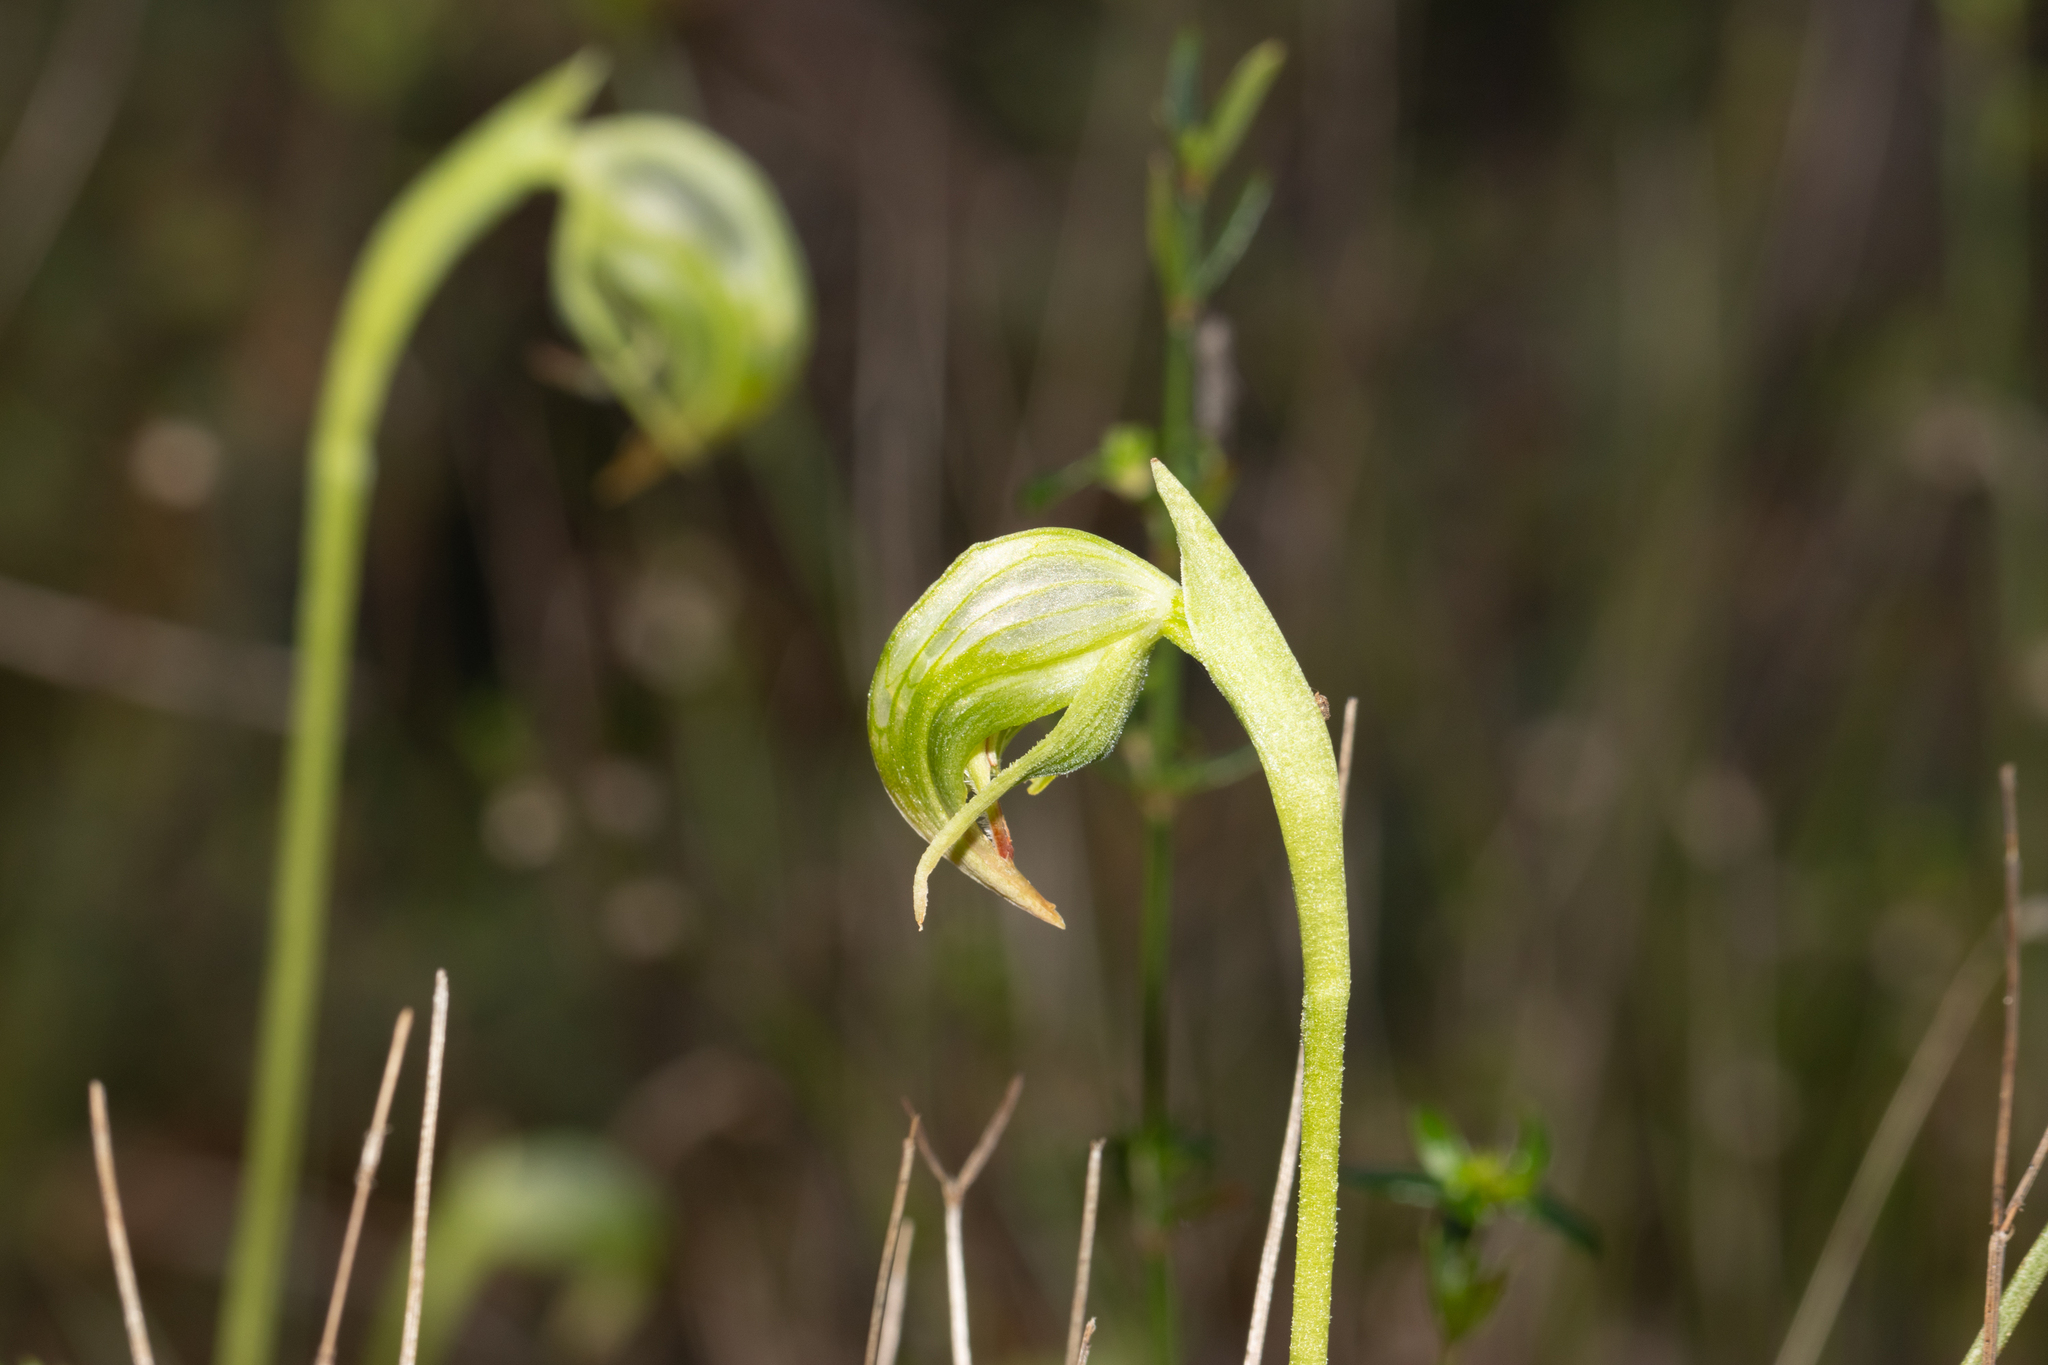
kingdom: Plantae
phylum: Tracheophyta
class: Liliopsida
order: Asparagales
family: Orchidaceae
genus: Pterostylis
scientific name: Pterostylis nutans
